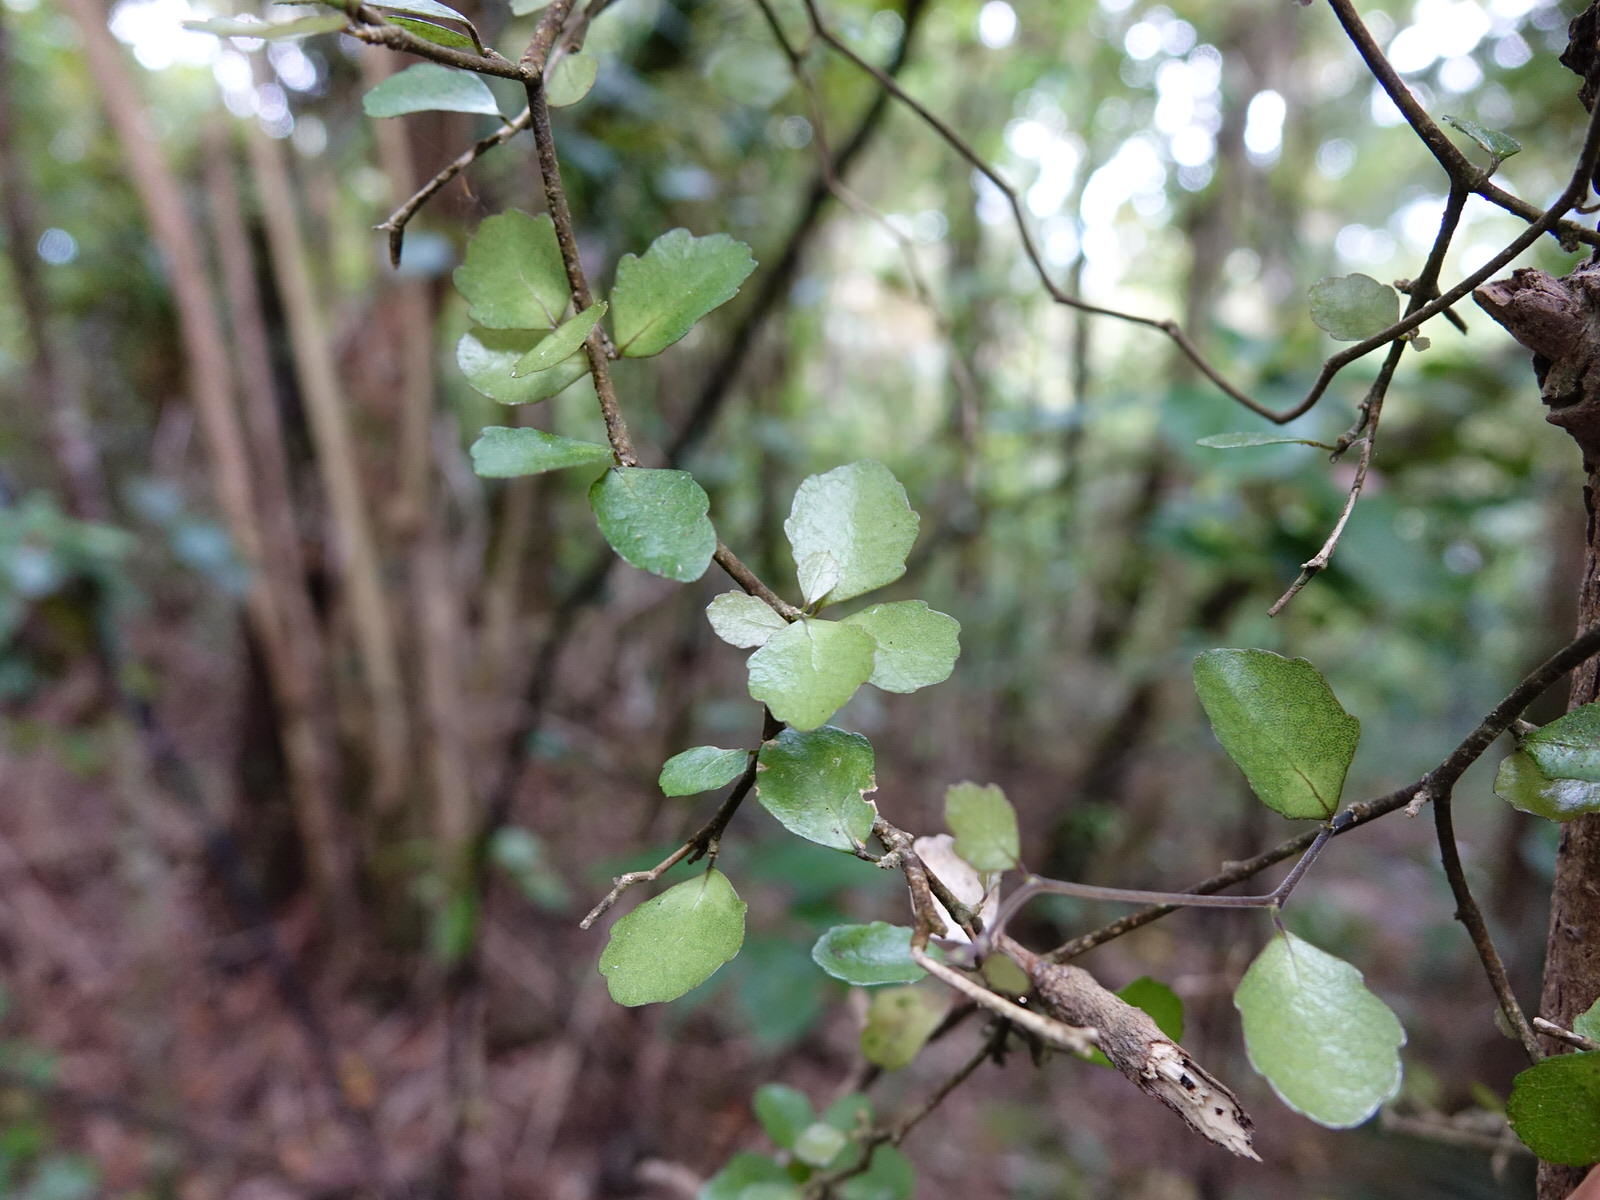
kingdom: Plantae
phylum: Tracheophyta
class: Magnoliopsida
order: Sapindales
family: Rutaceae
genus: Melicope
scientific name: Melicope simplex
